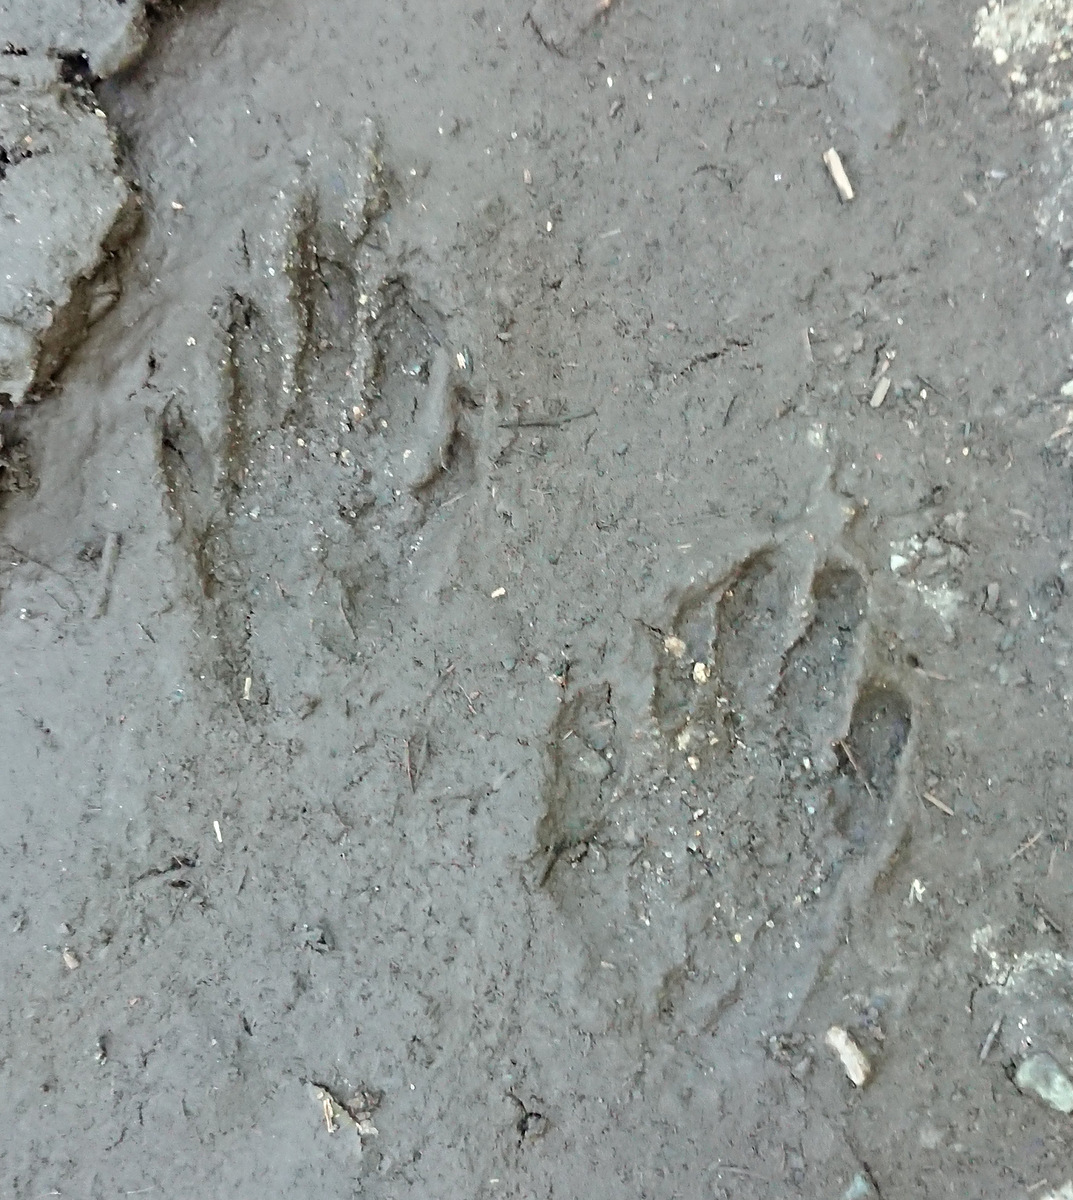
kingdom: Animalia
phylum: Chordata
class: Mammalia
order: Carnivora
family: Procyonidae
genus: Procyon
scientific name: Procyon lotor
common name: Raccoon
